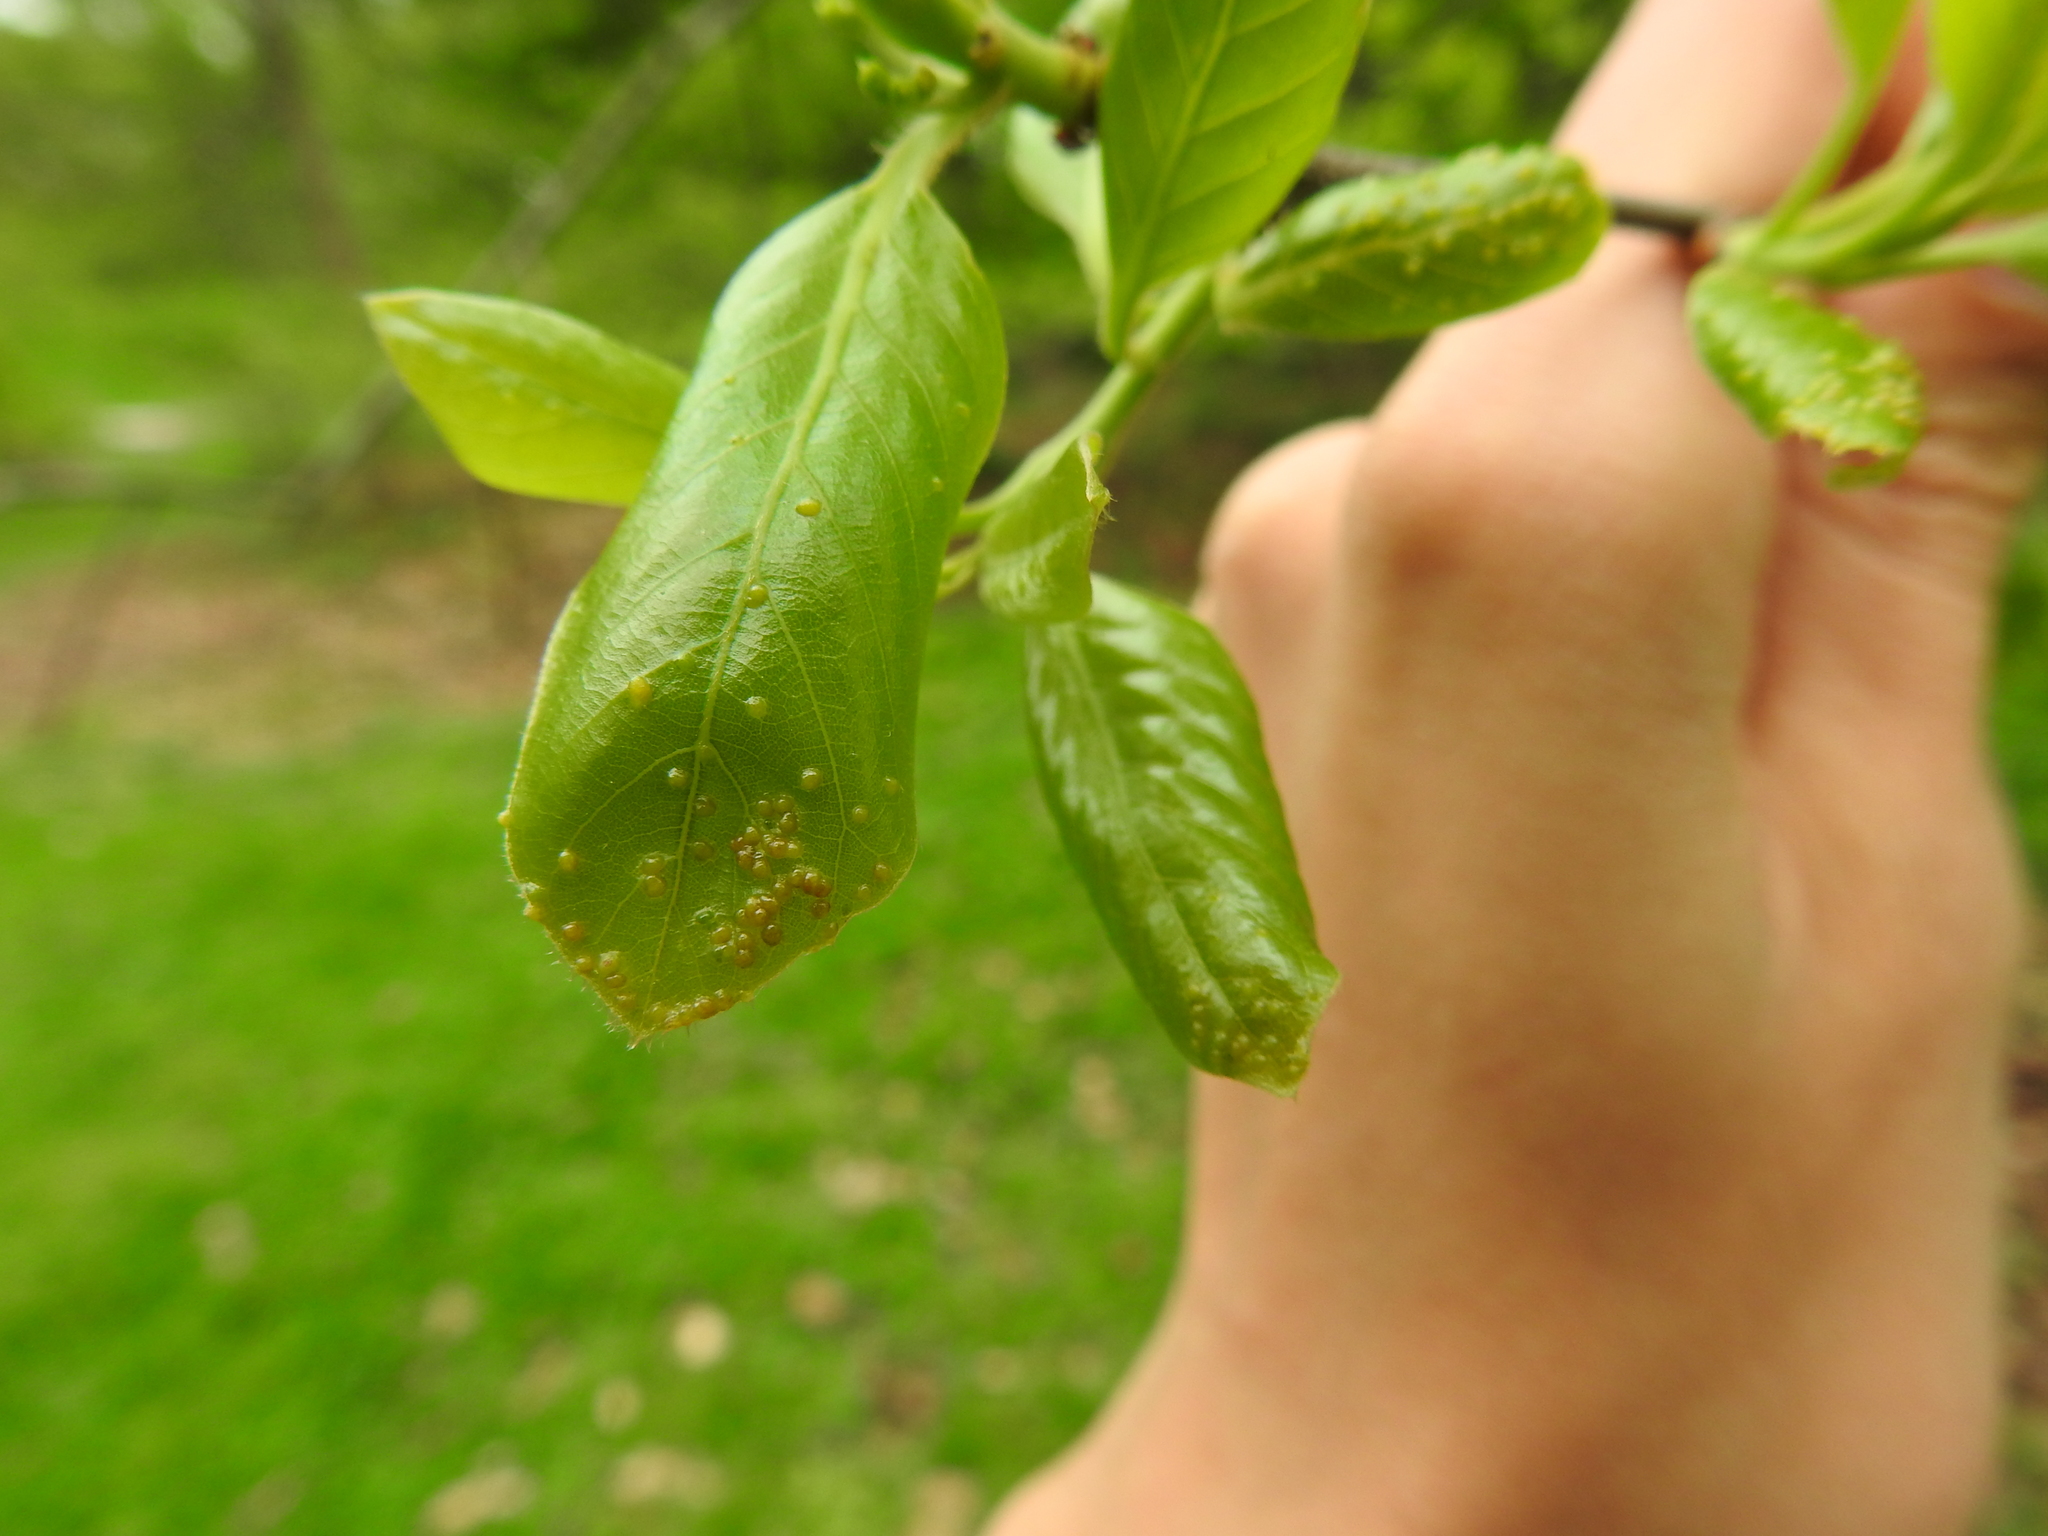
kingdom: Animalia
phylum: Arthropoda
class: Arachnida
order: Trombidiformes
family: Eriophyidae
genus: Aceria
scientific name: Aceria
